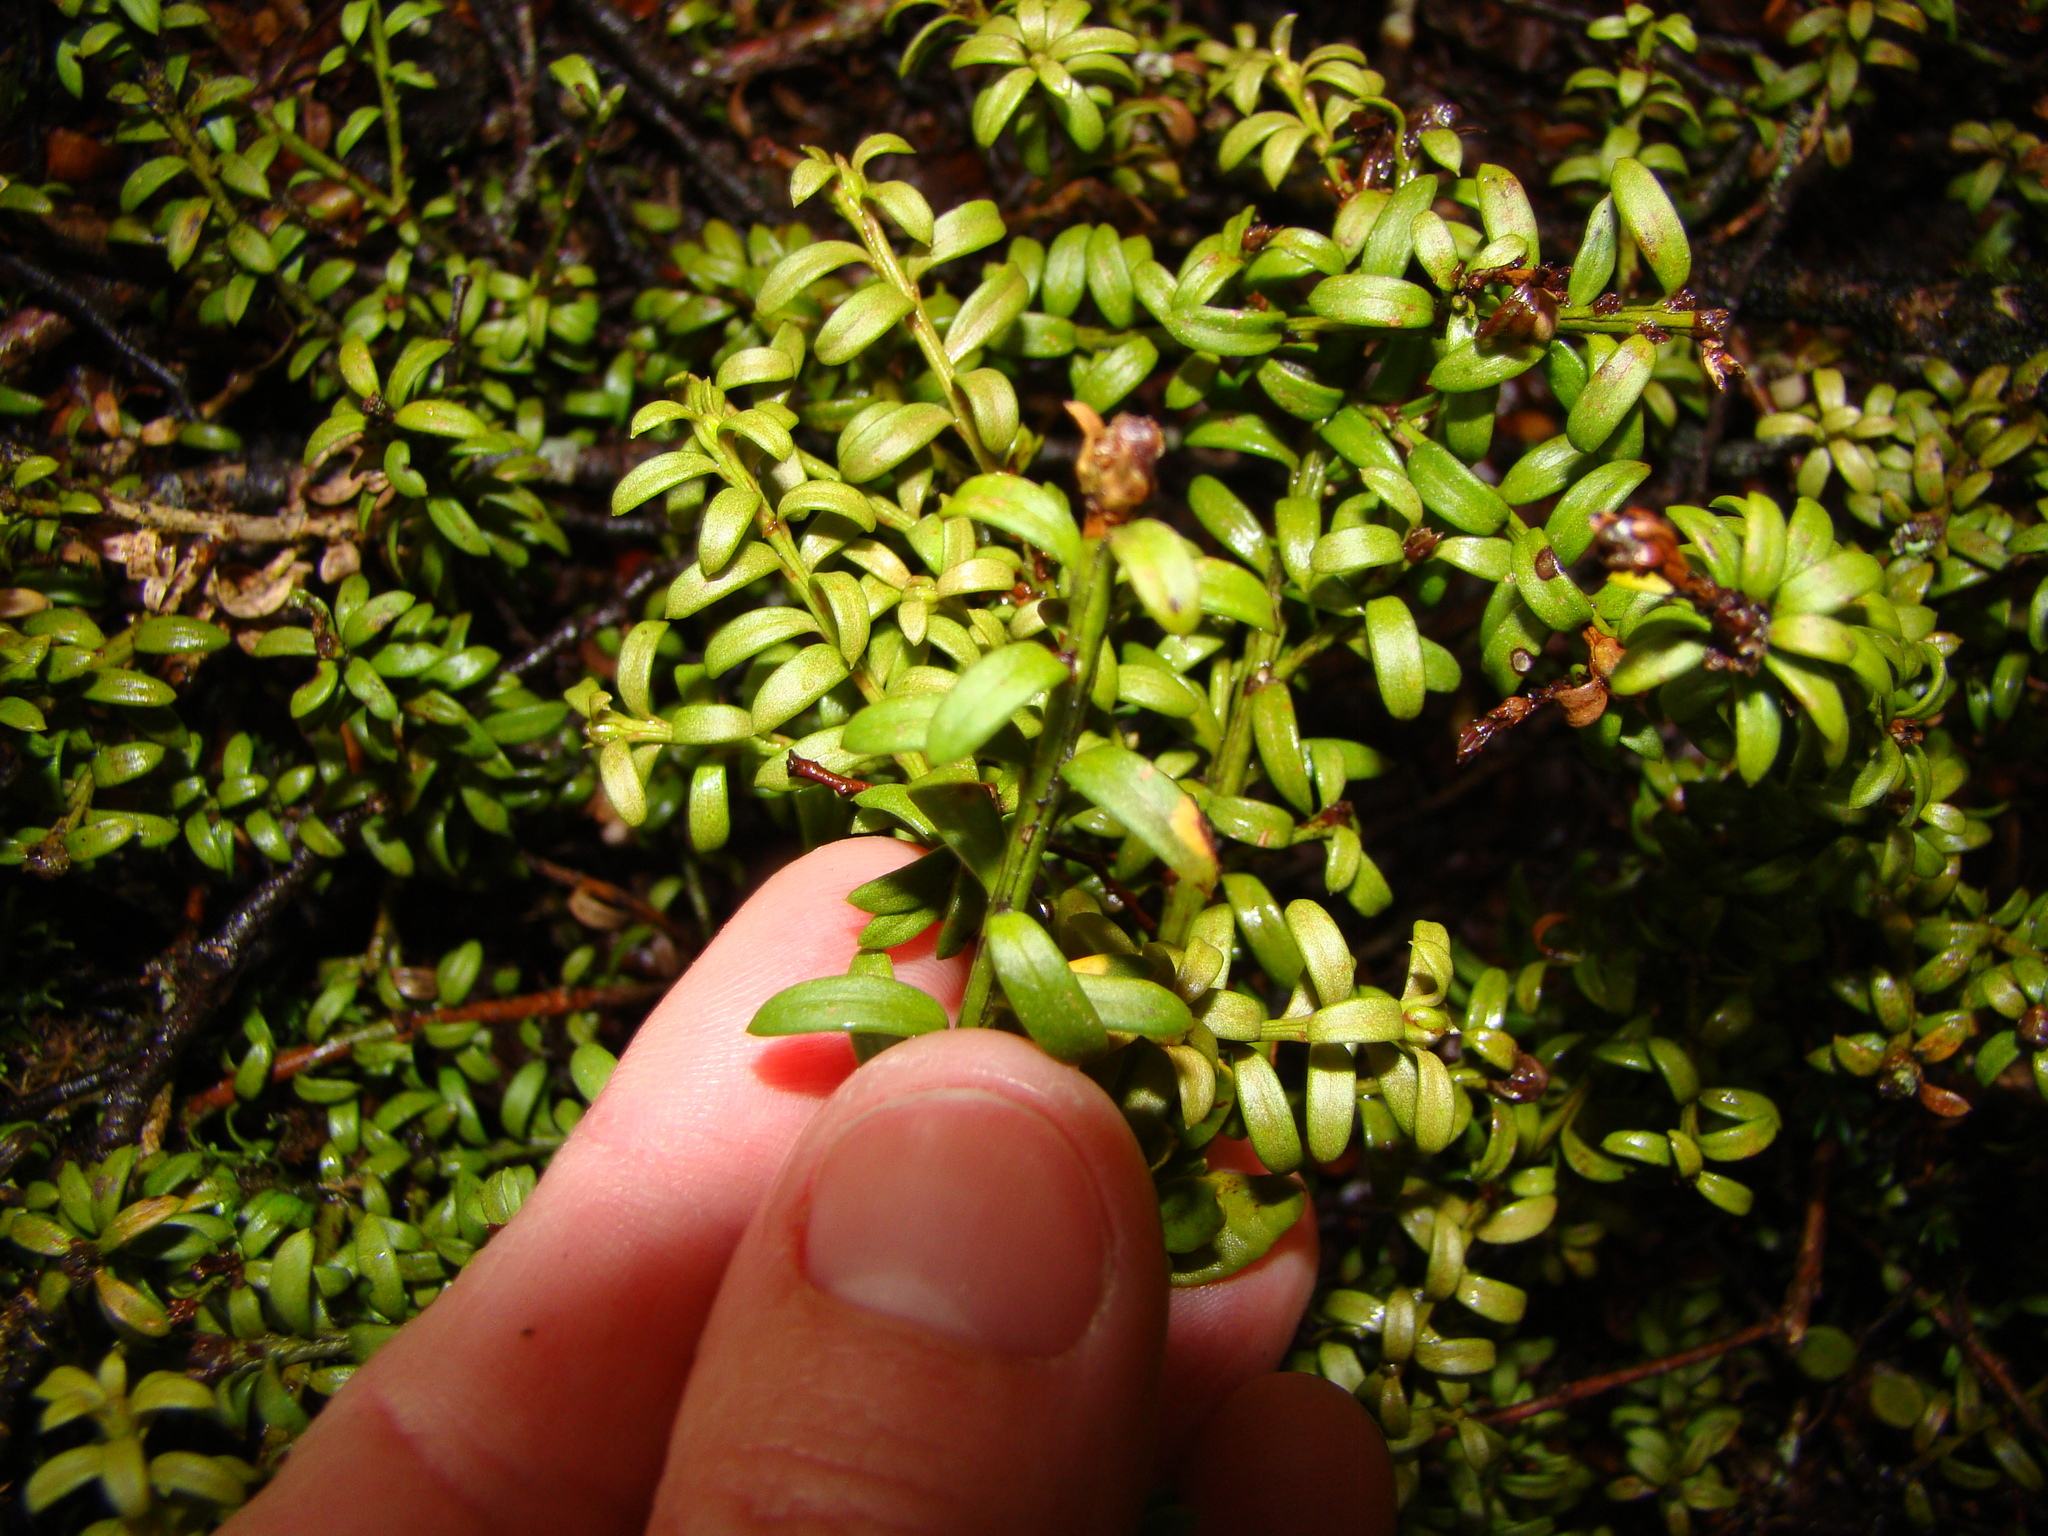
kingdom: Plantae
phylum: Tracheophyta
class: Pinopsida
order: Pinales
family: Podocarpaceae
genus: Podocarpus
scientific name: Podocarpus nivalis
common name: Alpine totara
